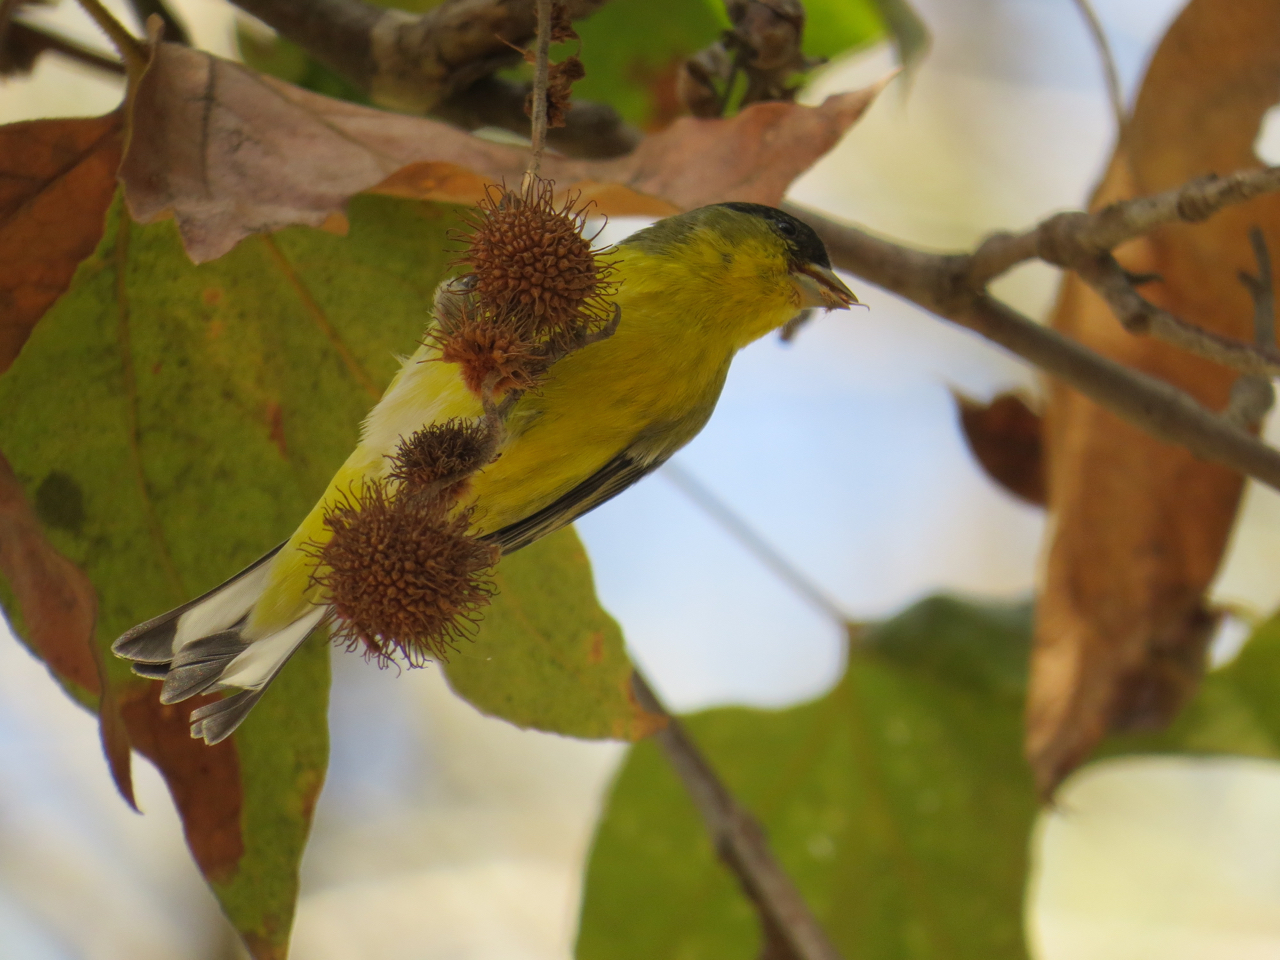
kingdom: Animalia
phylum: Chordata
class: Aves
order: Passeriformes
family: Fringillidae
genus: Spinus
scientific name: Spinus psaltria
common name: Lesser goldfinch
